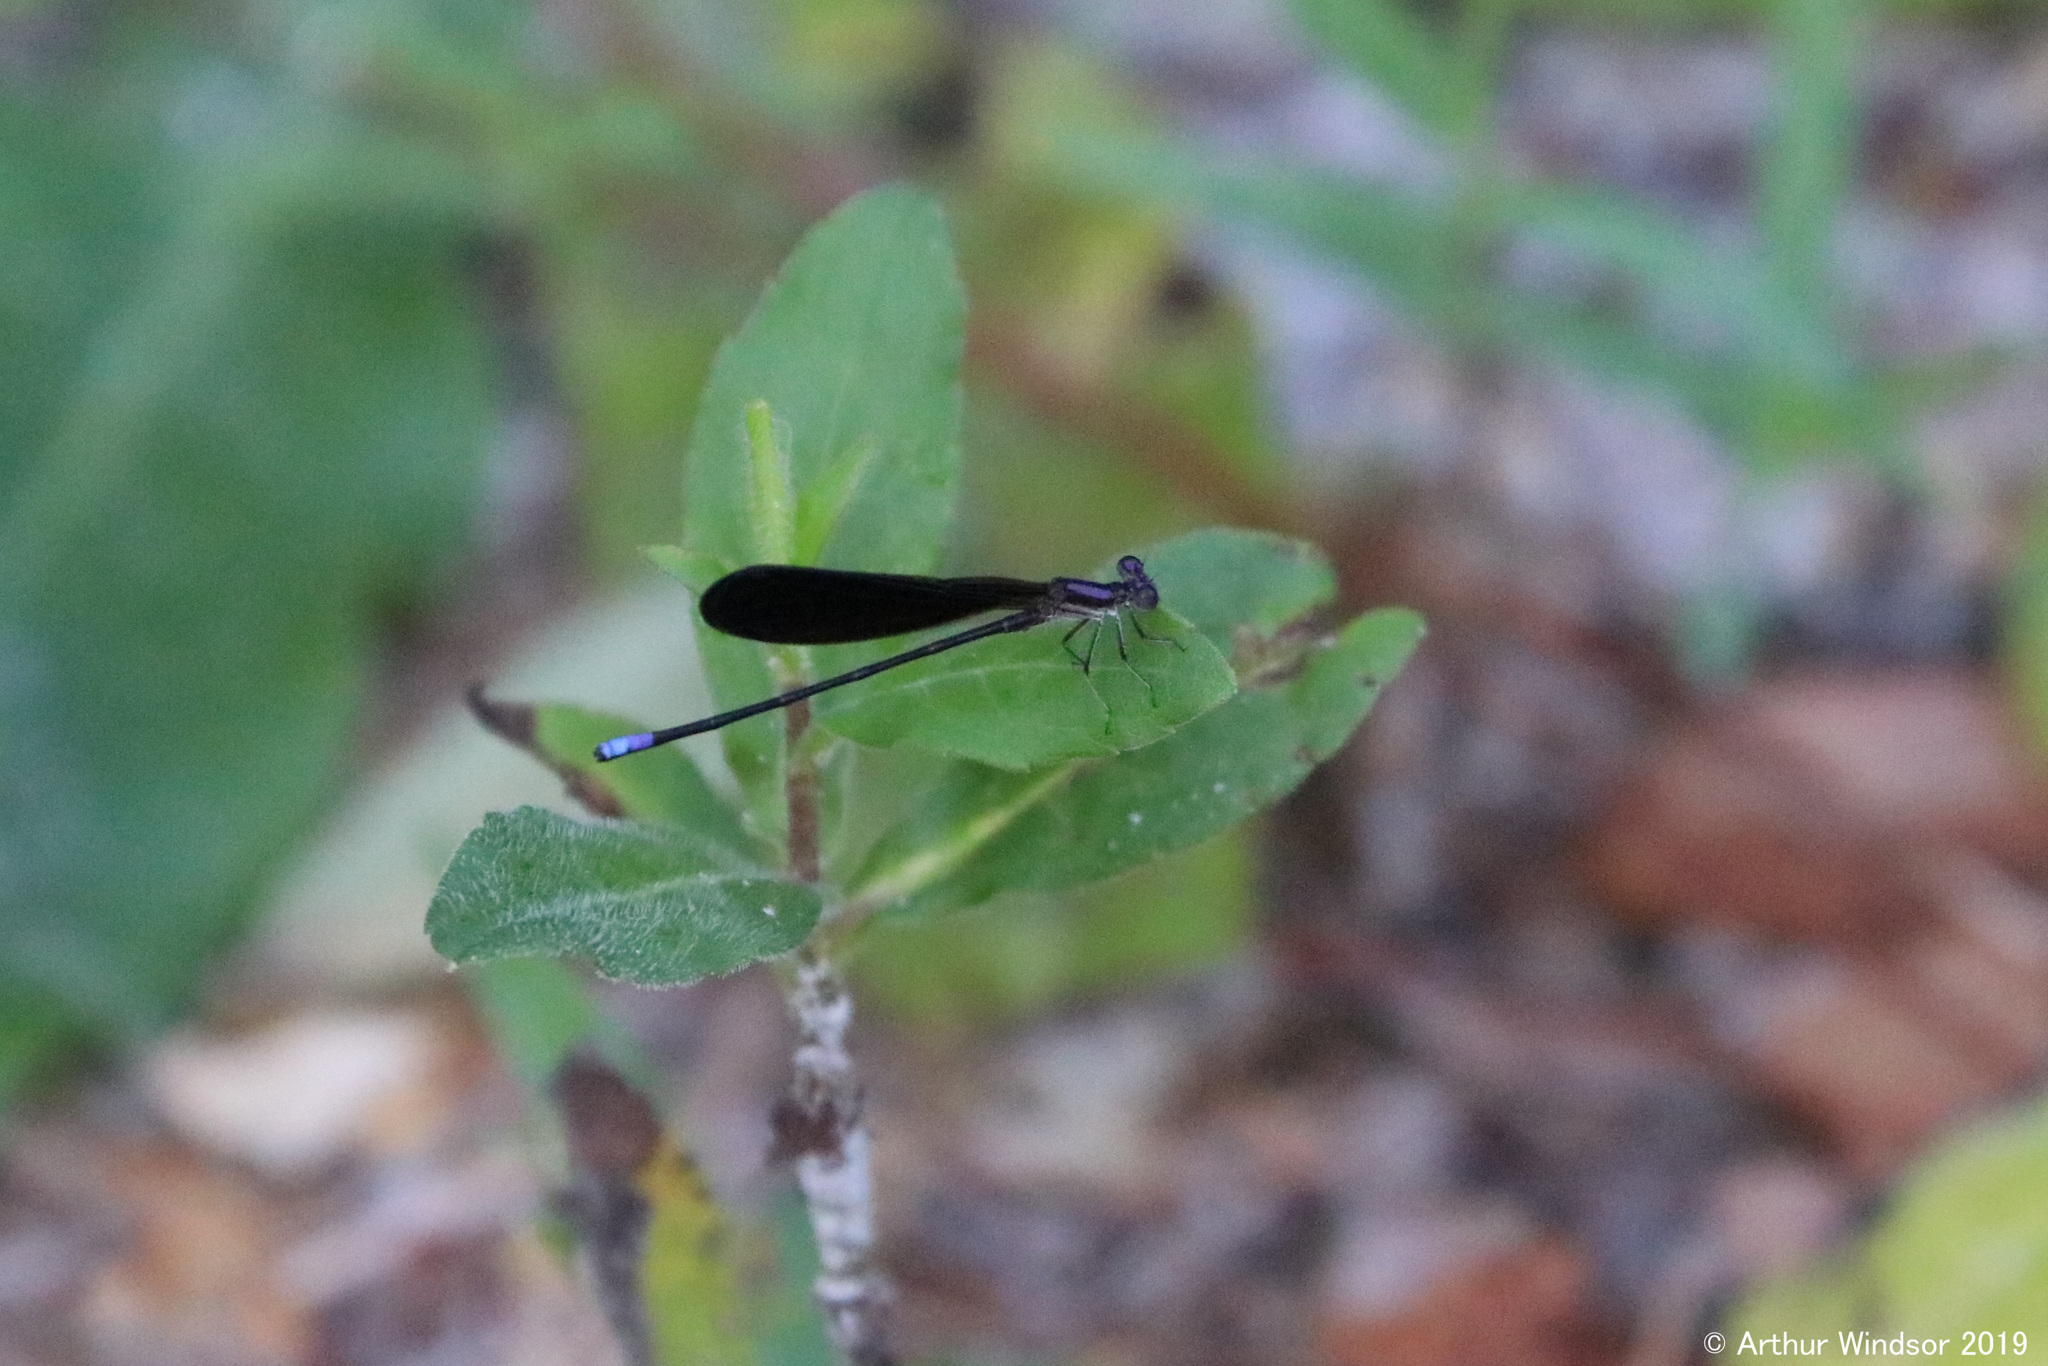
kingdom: Animalia
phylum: Arthropoda
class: Insecta
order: Odonata
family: Coenagrionidae
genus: Argia
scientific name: Argia fumipennis
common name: Variable dancer
